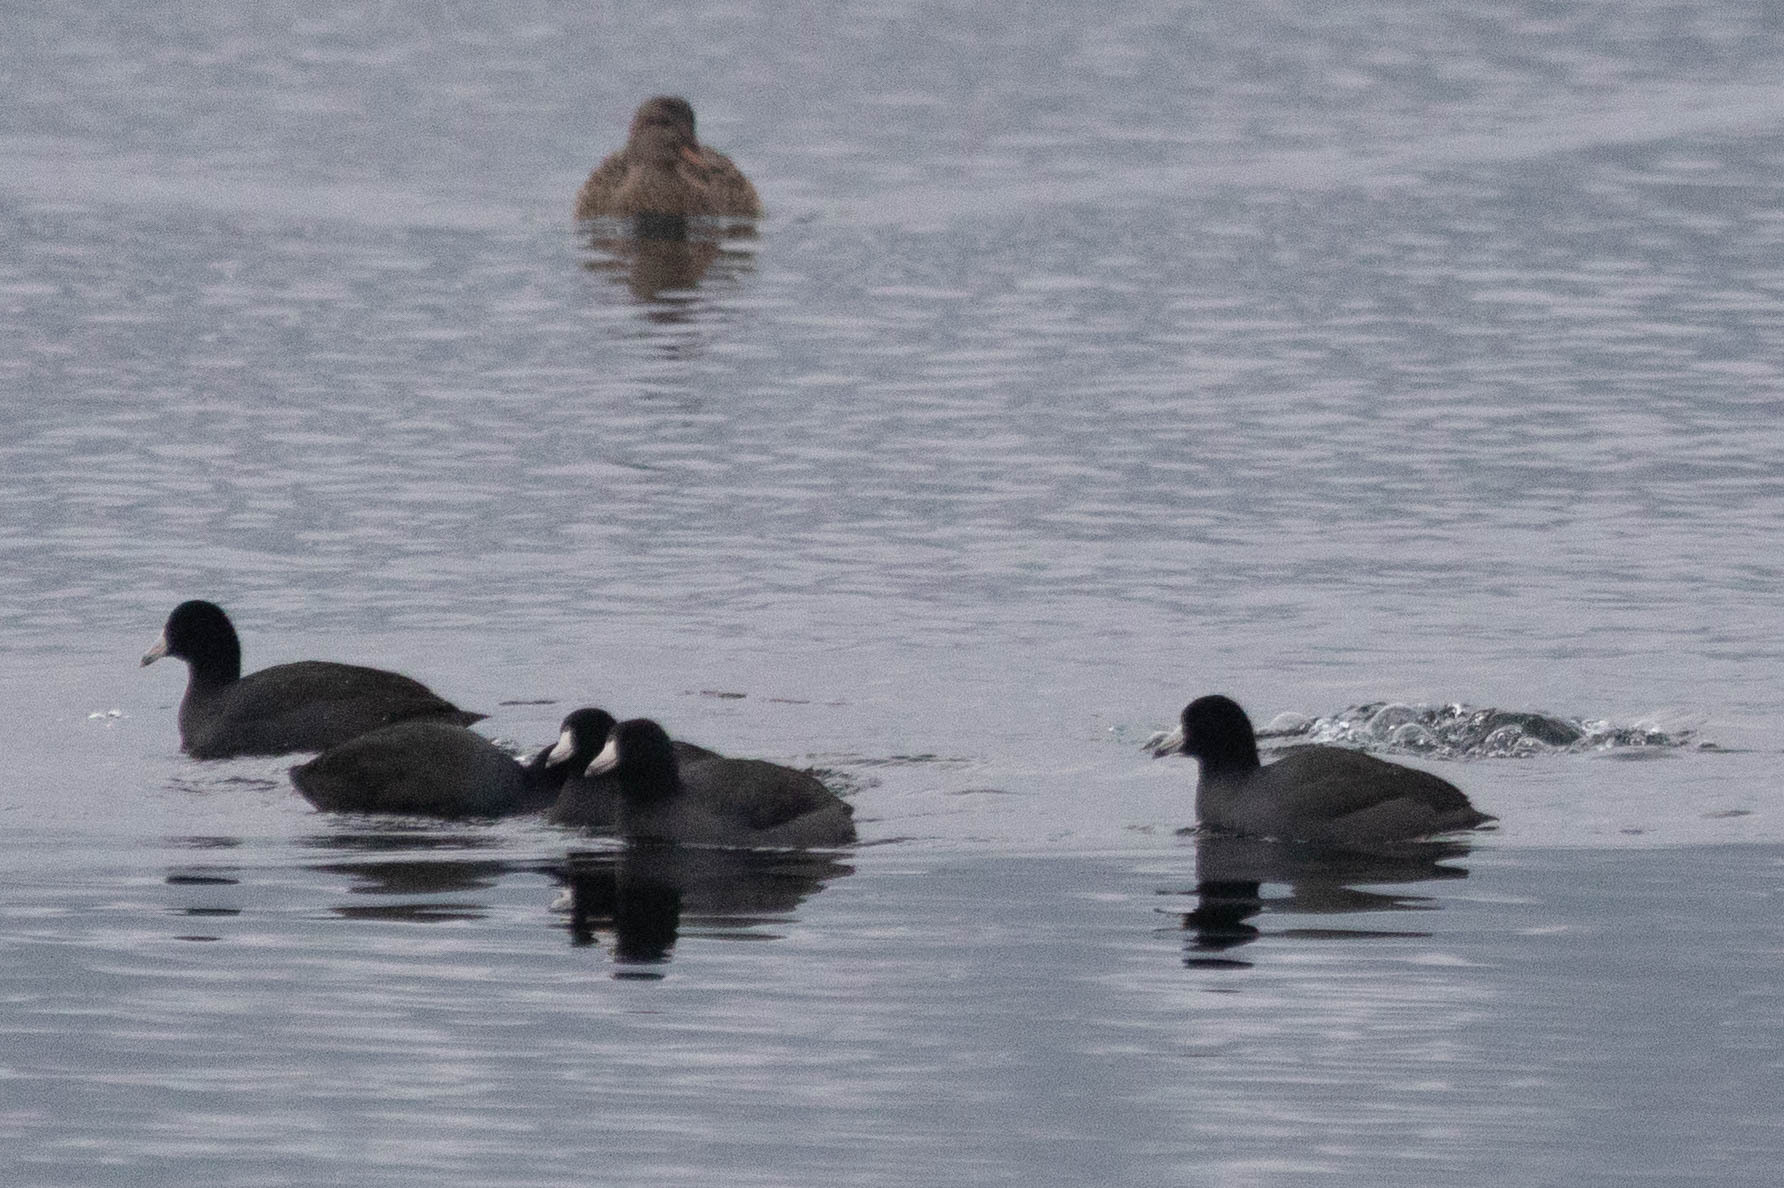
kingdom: Animalia
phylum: Chordata
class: Aves
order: Gruiformes
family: Rallidae
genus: Fulica
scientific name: Fulica americana
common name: American coot
